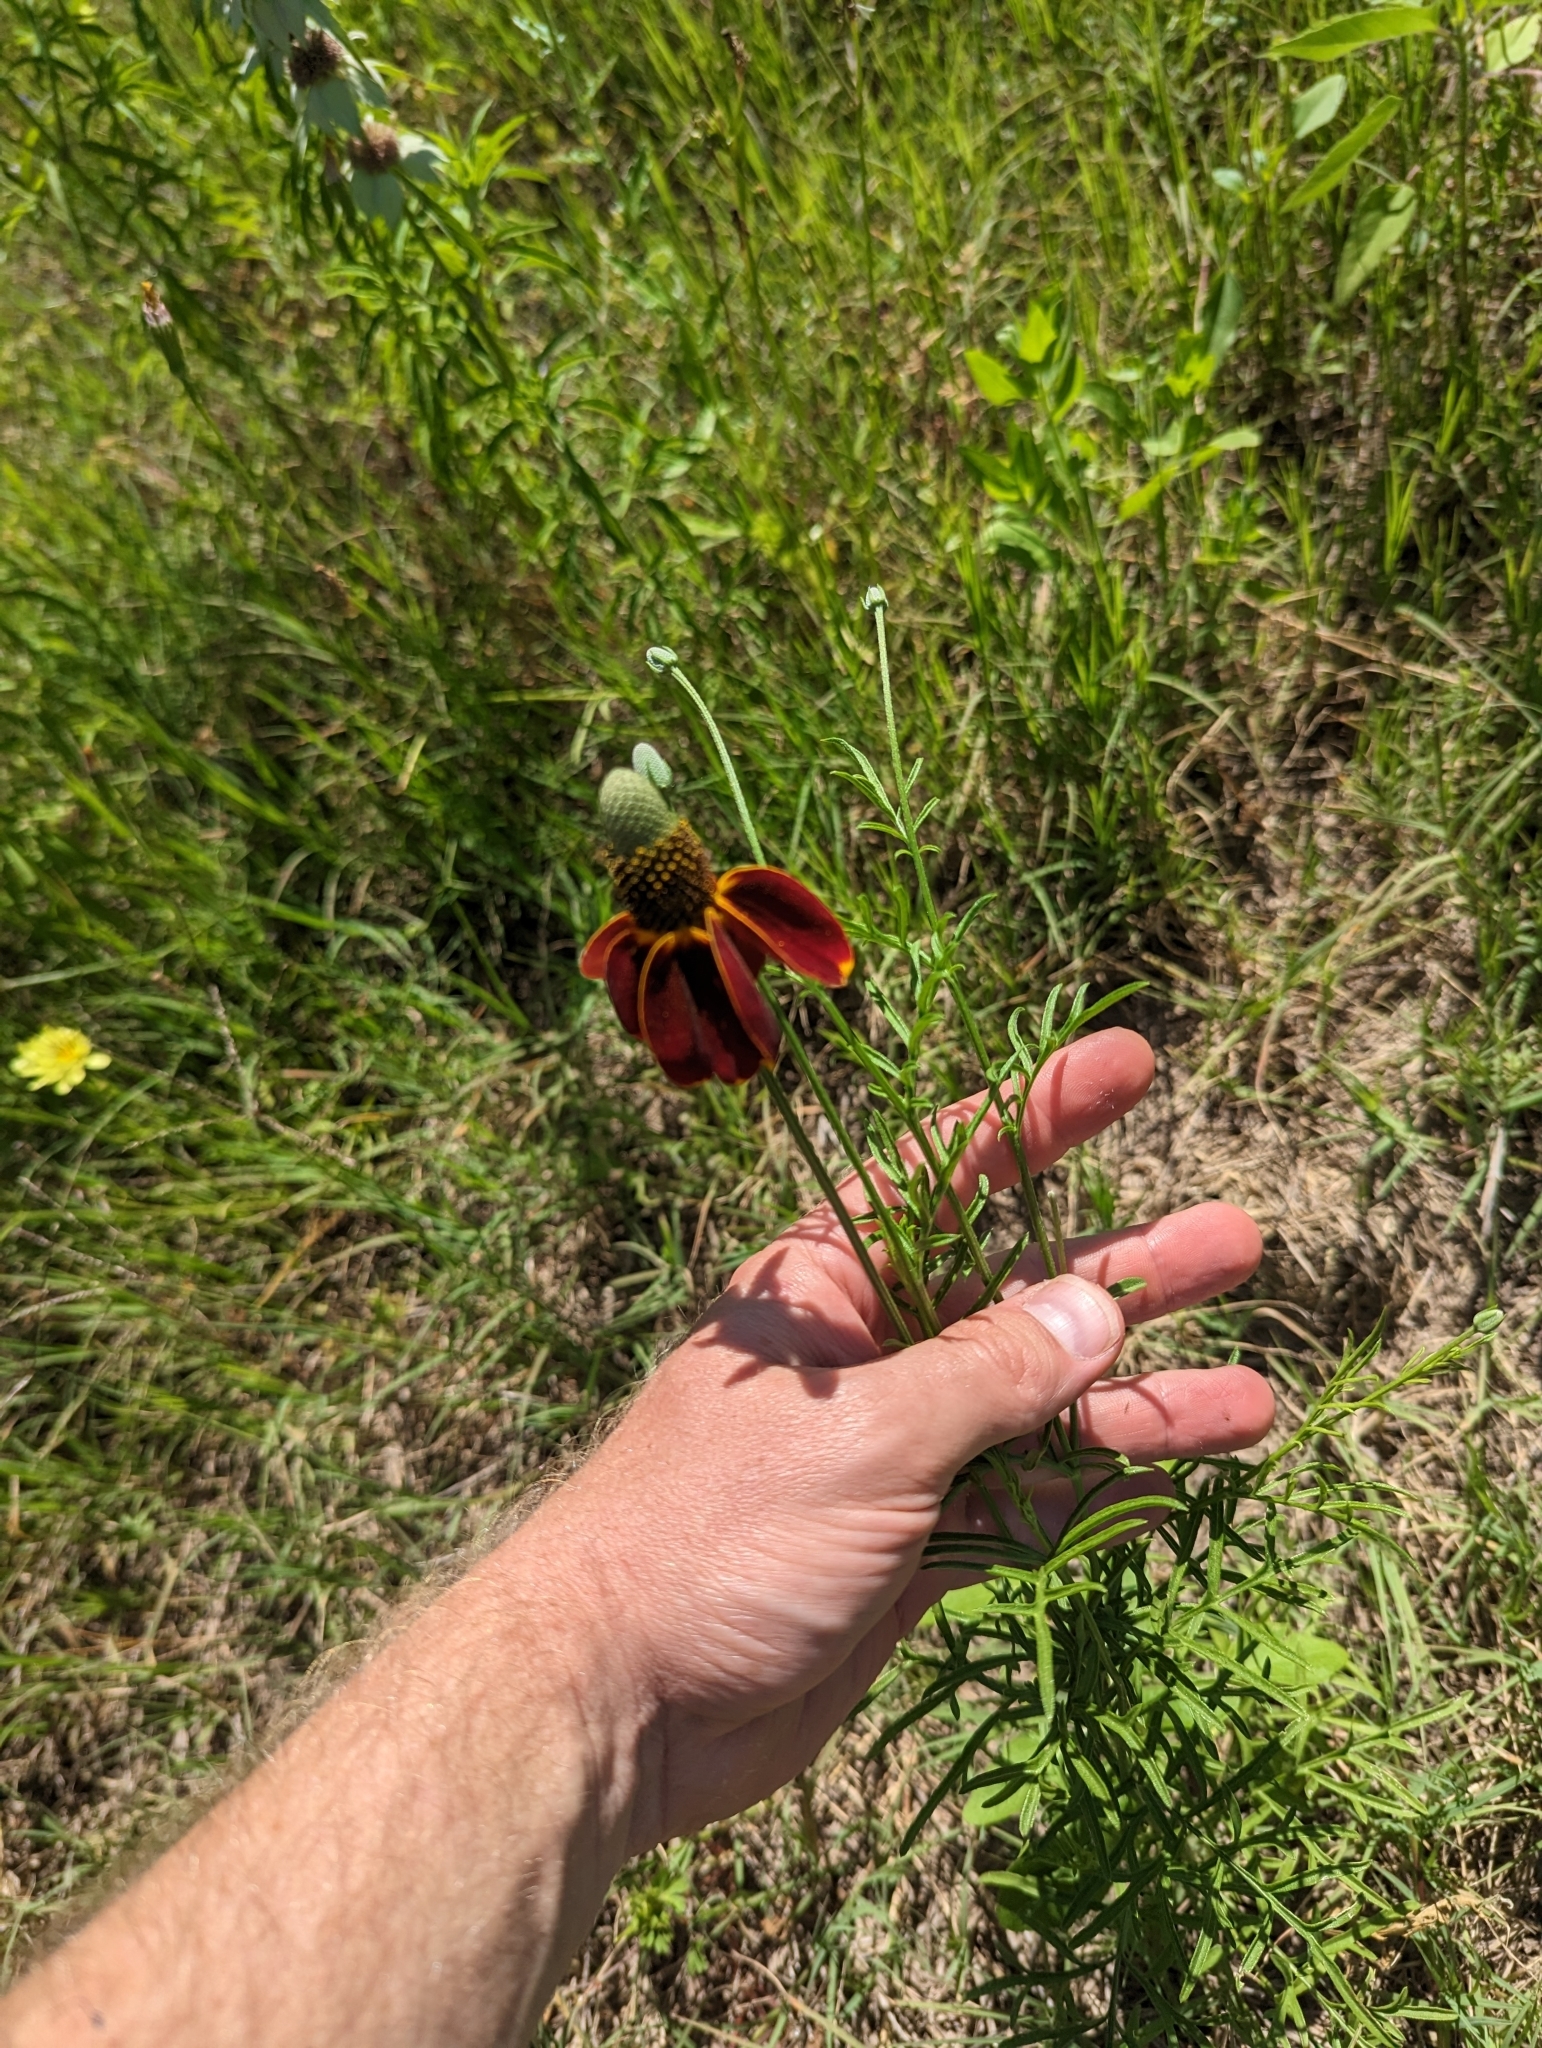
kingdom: Plantae
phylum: Tracheophyta
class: Magnoliopsida
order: Asterales
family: Asteraceae
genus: Ratibida
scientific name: Ratibida columnifera
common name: Prairie coneflower
